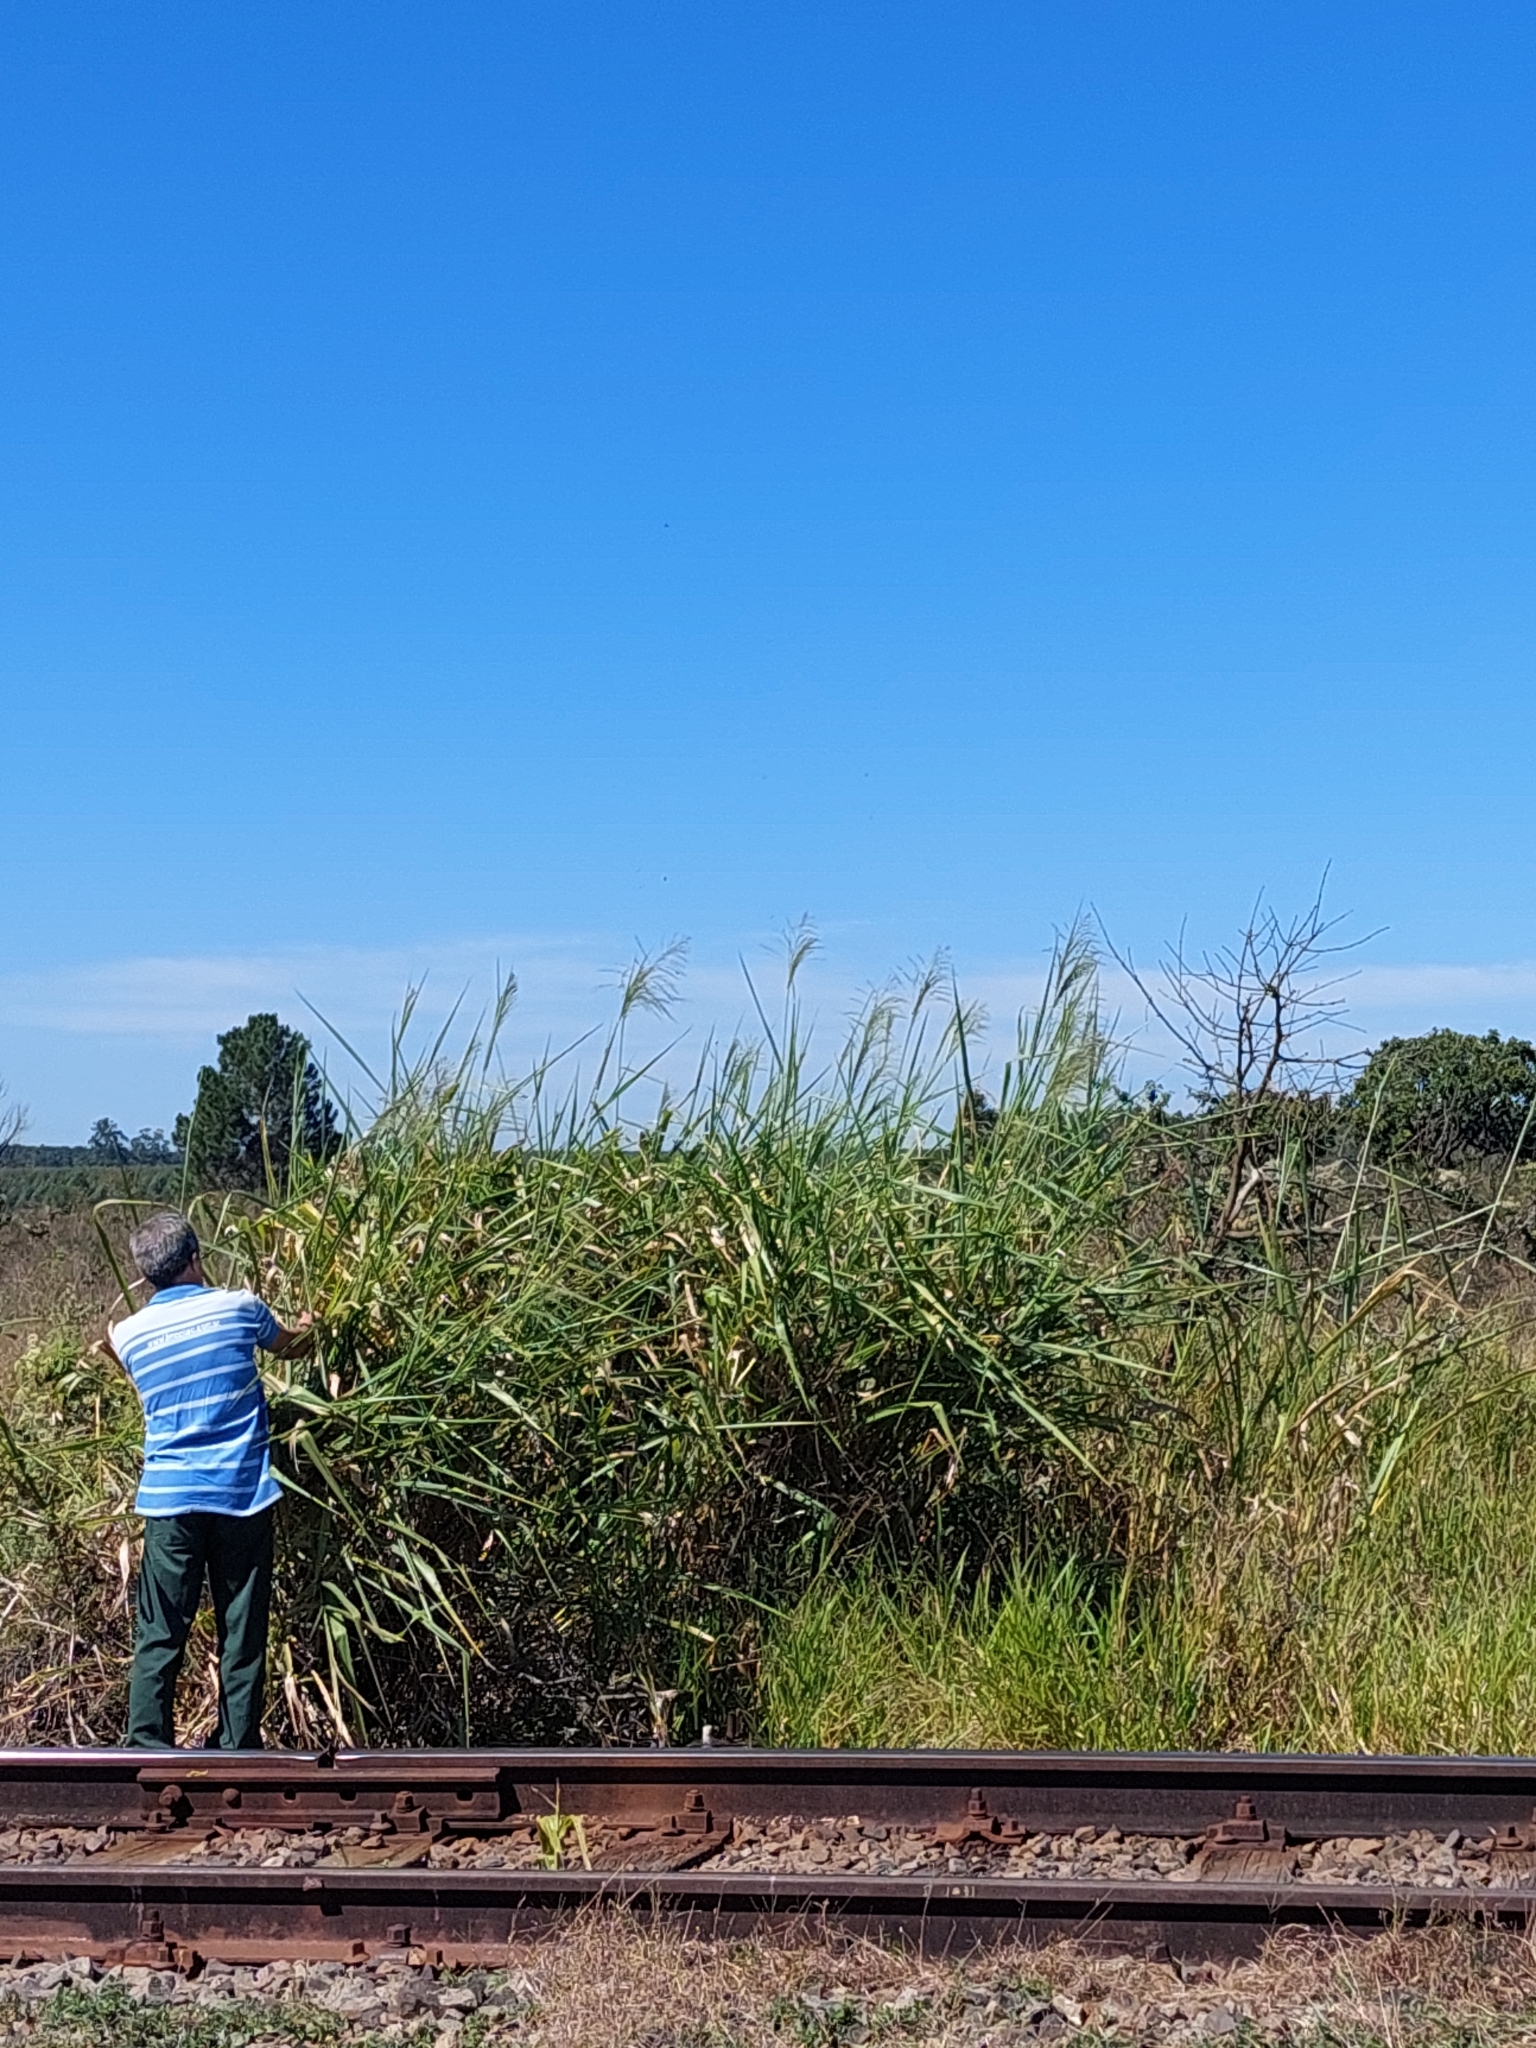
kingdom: Plantae
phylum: Tracheophyta
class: Liliopsida
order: Poales
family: Poaceae
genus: Megathyrsus
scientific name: Megathyrsus maximus
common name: Guineagrass
